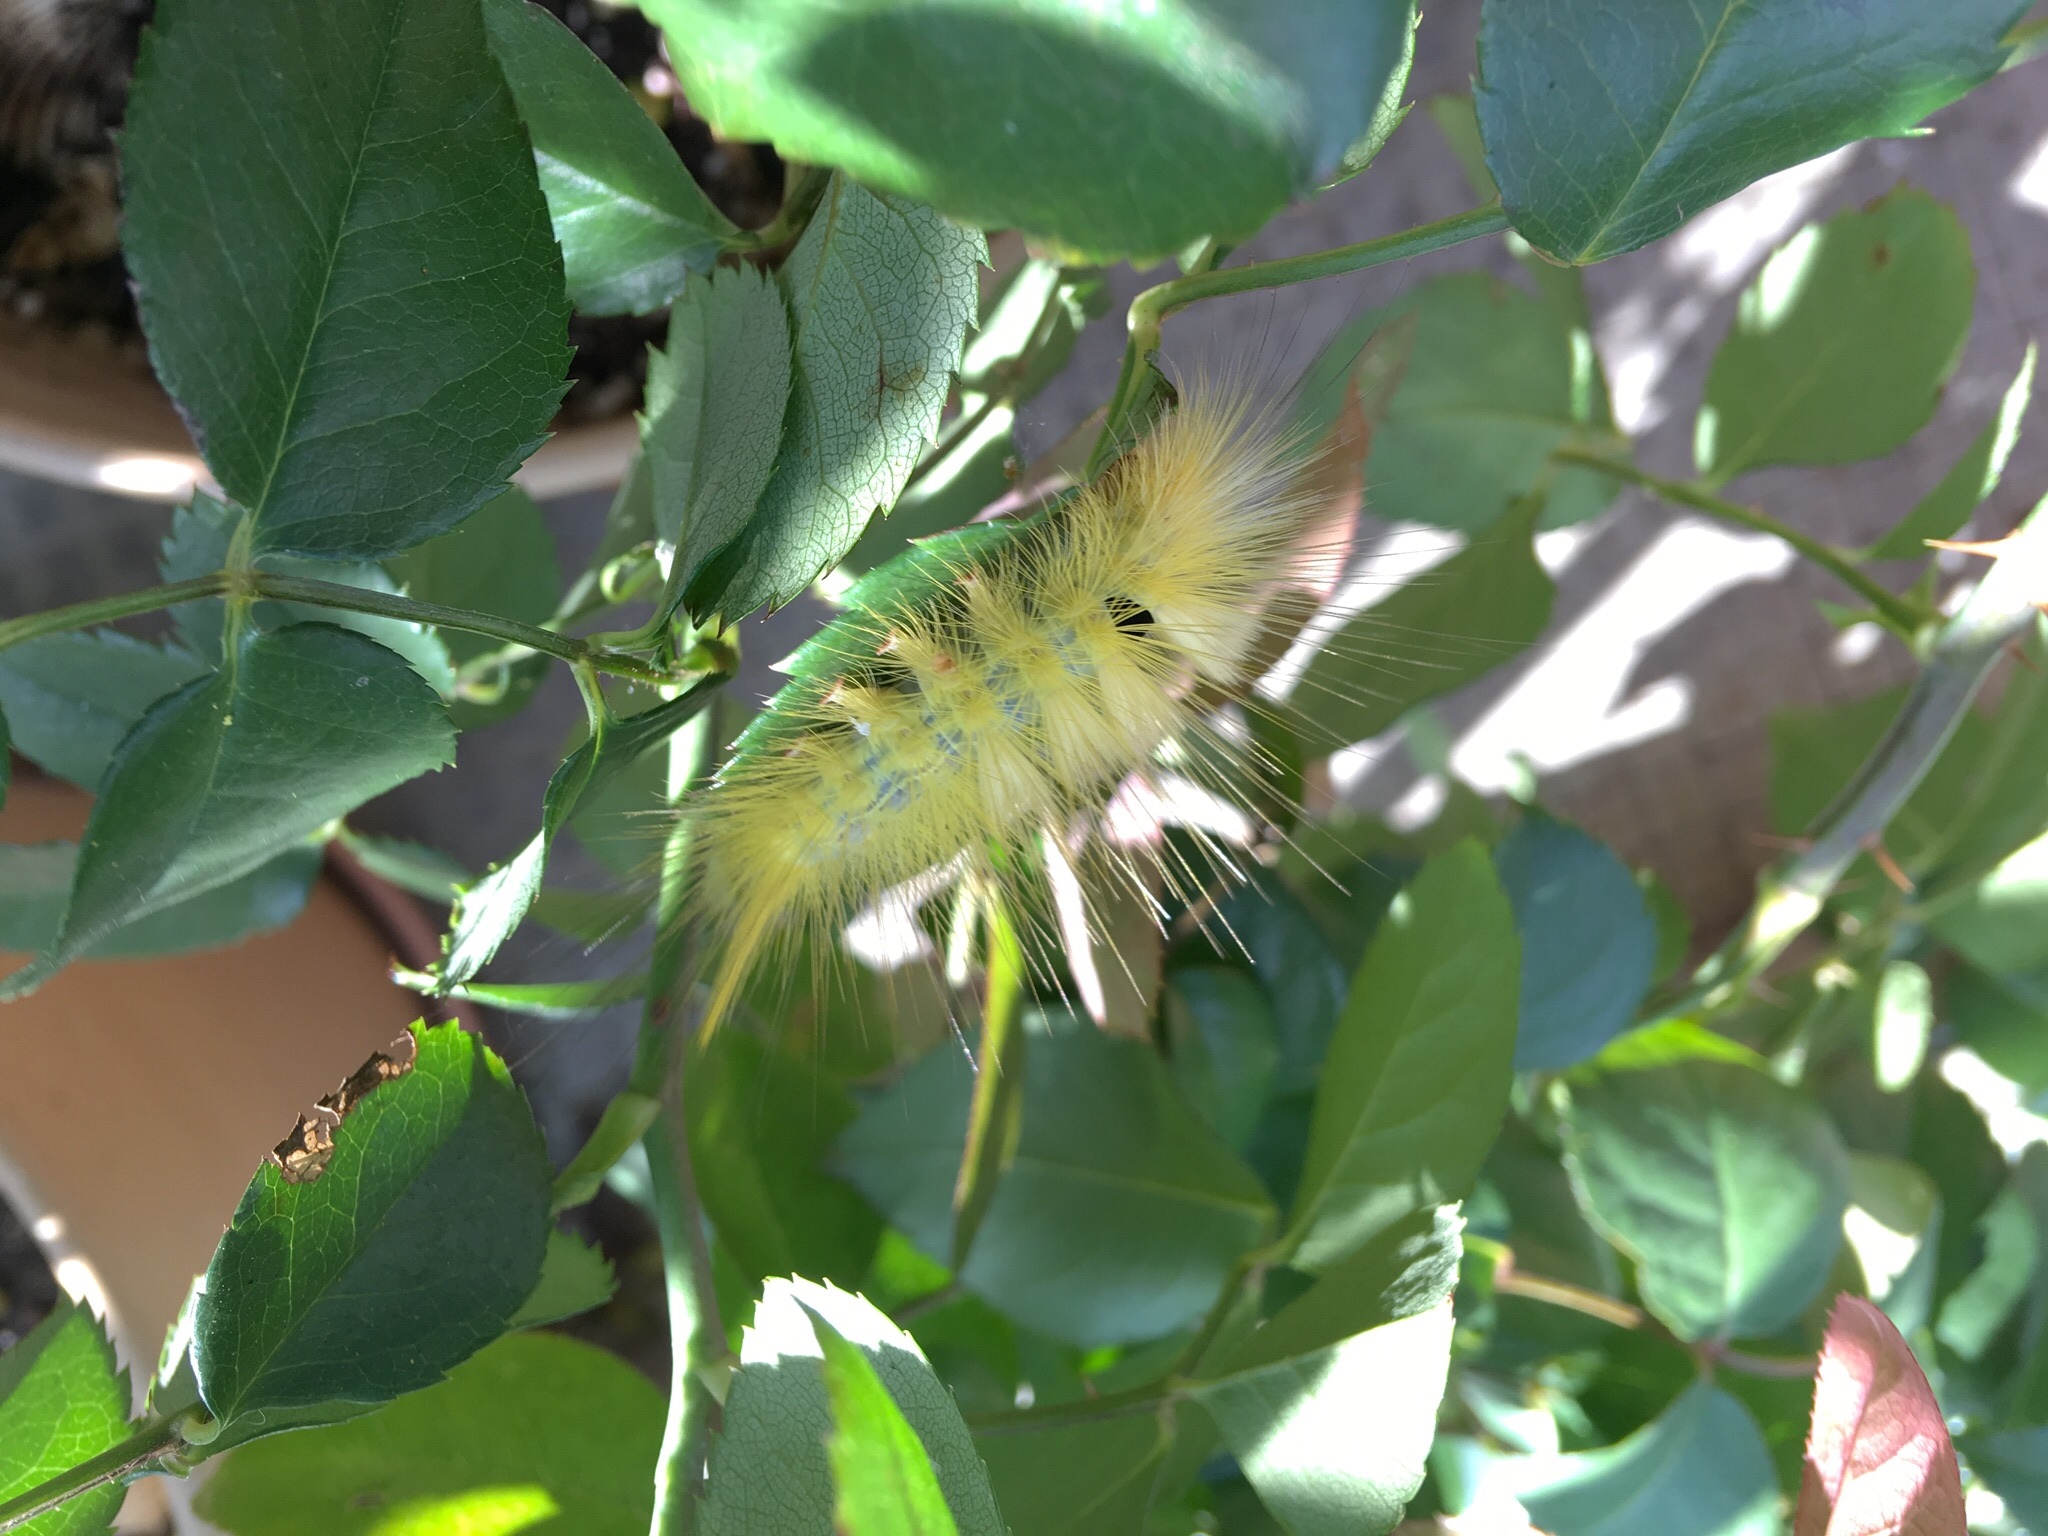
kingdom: Animalia
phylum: Arthropoda
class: Insecta
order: Lepidoptera
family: Erebidae
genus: Calliteara
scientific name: Calliteara grotei
